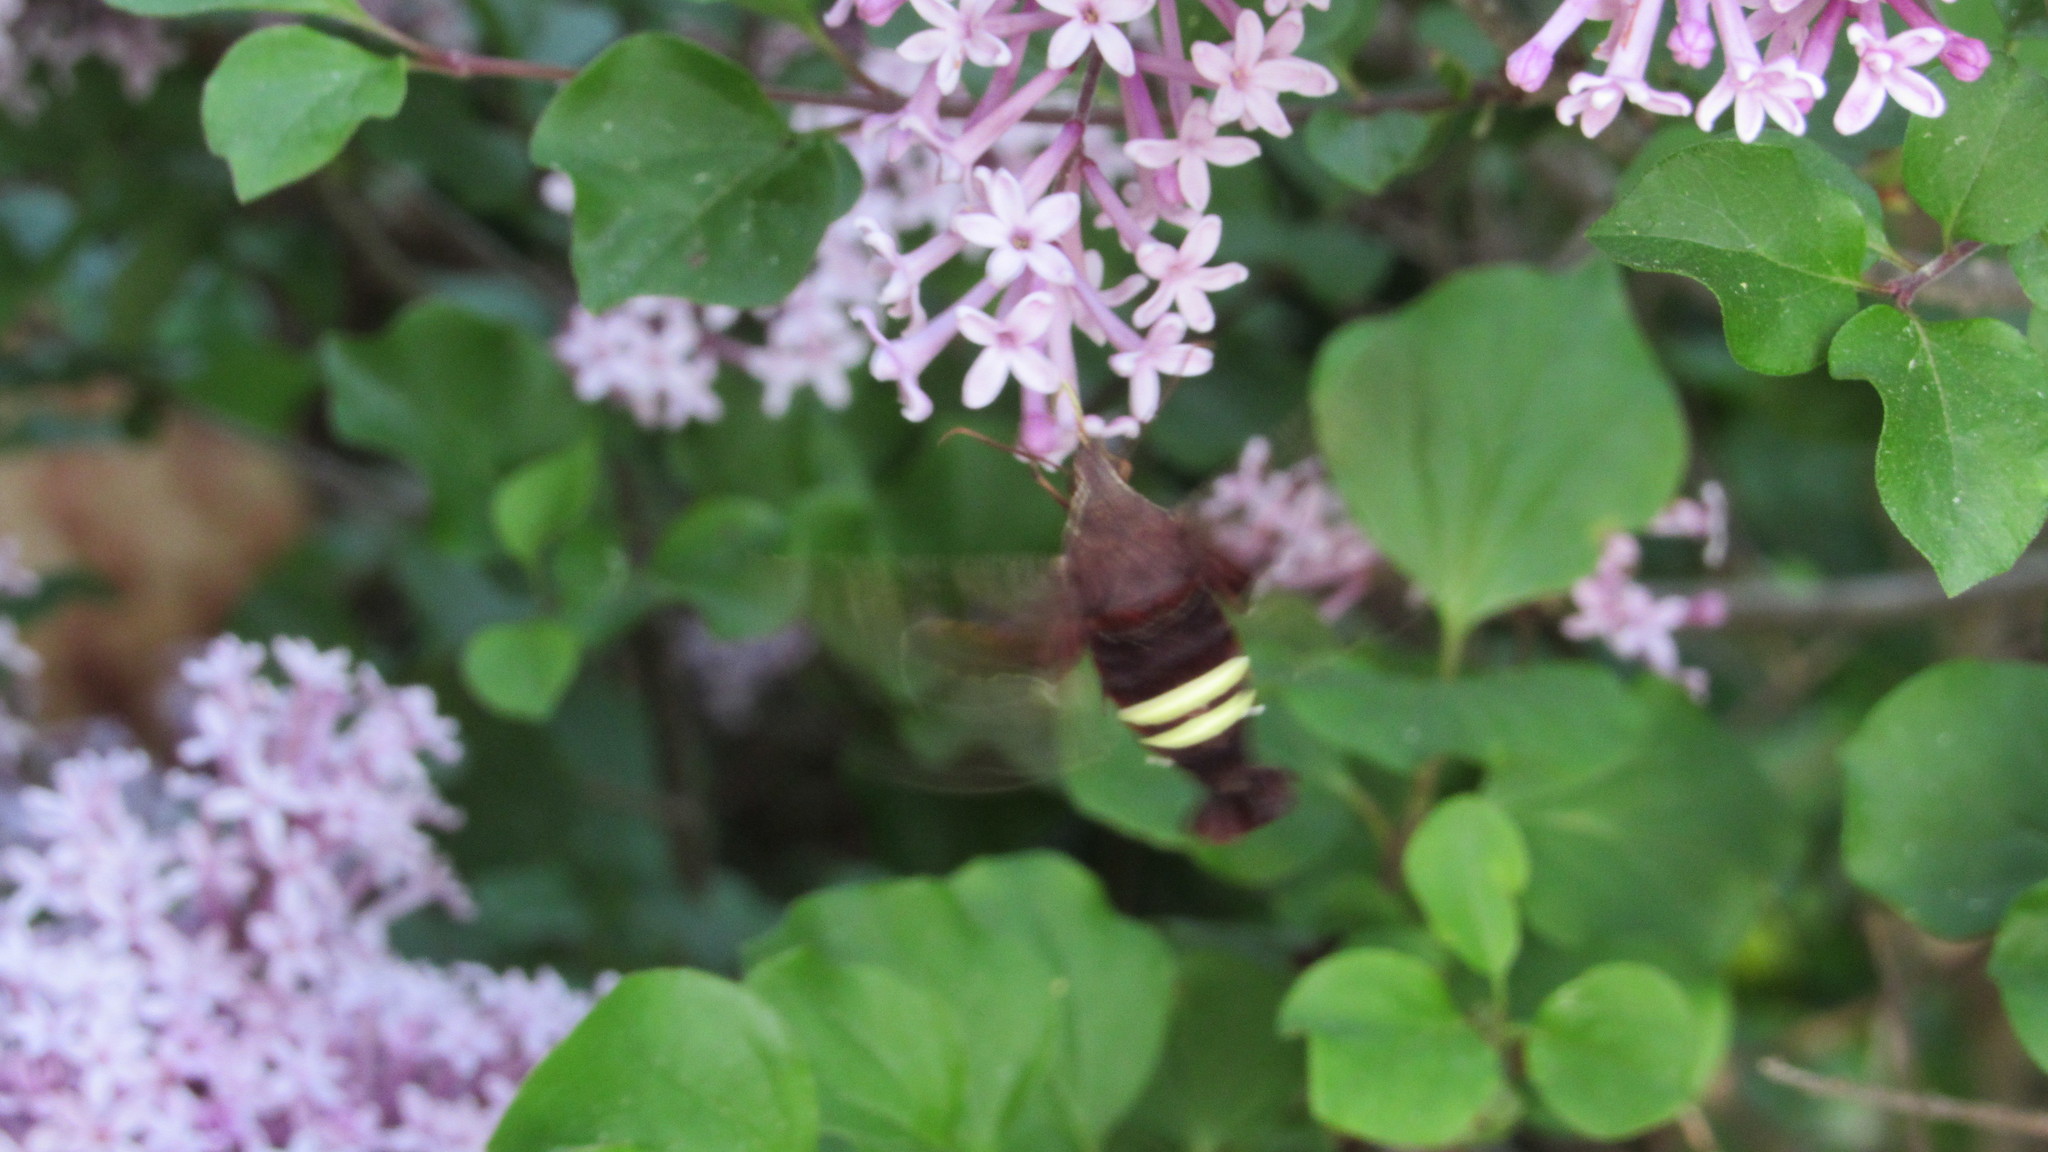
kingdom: Animalia
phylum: Arthropoda
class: Insecta
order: Lepidoptera
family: Sphingidae
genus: Amphion
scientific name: Amphion floridensis
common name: Nessus sphinx
